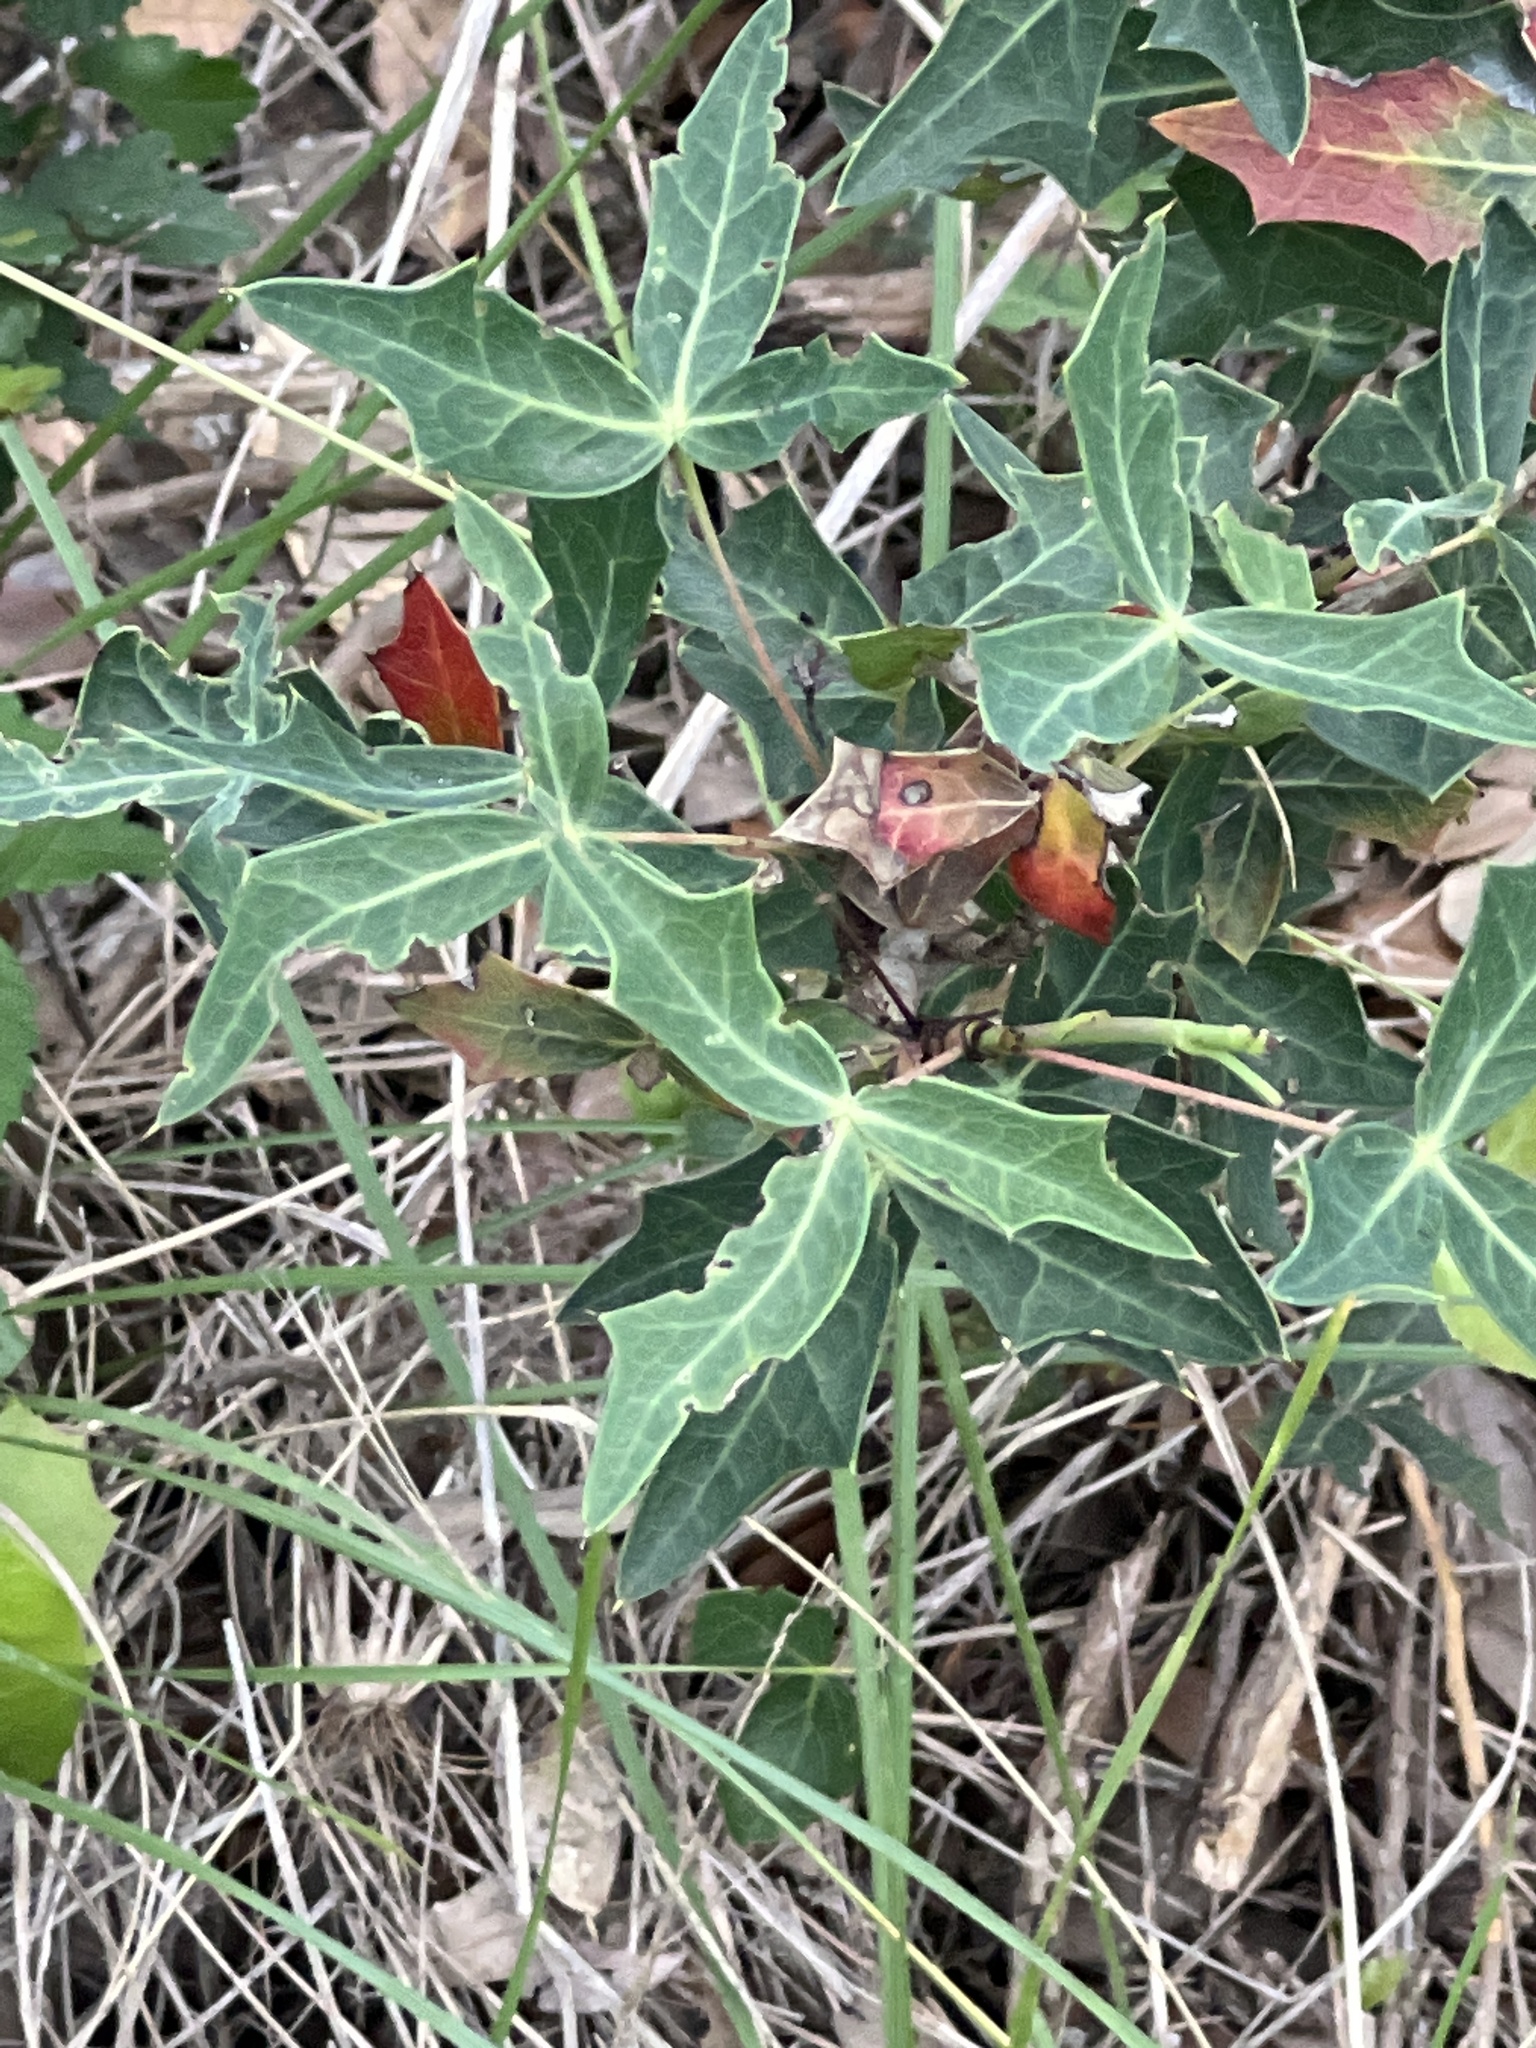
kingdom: Plantae
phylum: Tracheophyta
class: Magnoliopsida
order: Ranunculales
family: Berberidaceae
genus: Alloberberis
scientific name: Alloberberis trifoliolata
